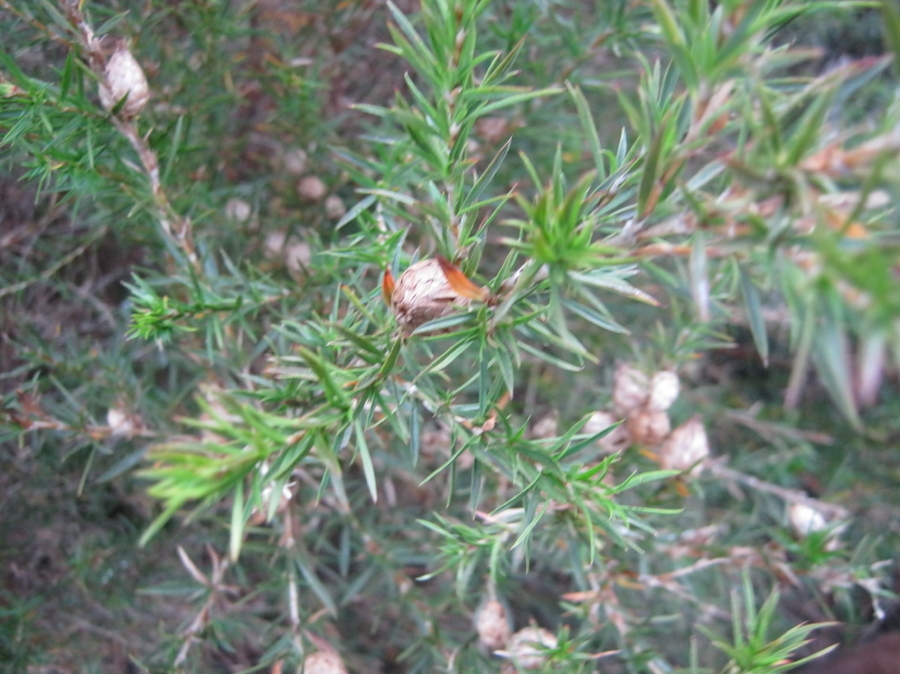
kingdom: Plantae
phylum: Tracheophyta
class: Magnoliopsida
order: Rosales
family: Rosaceae
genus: Cliffortia
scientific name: Cliffortia strobilifera
